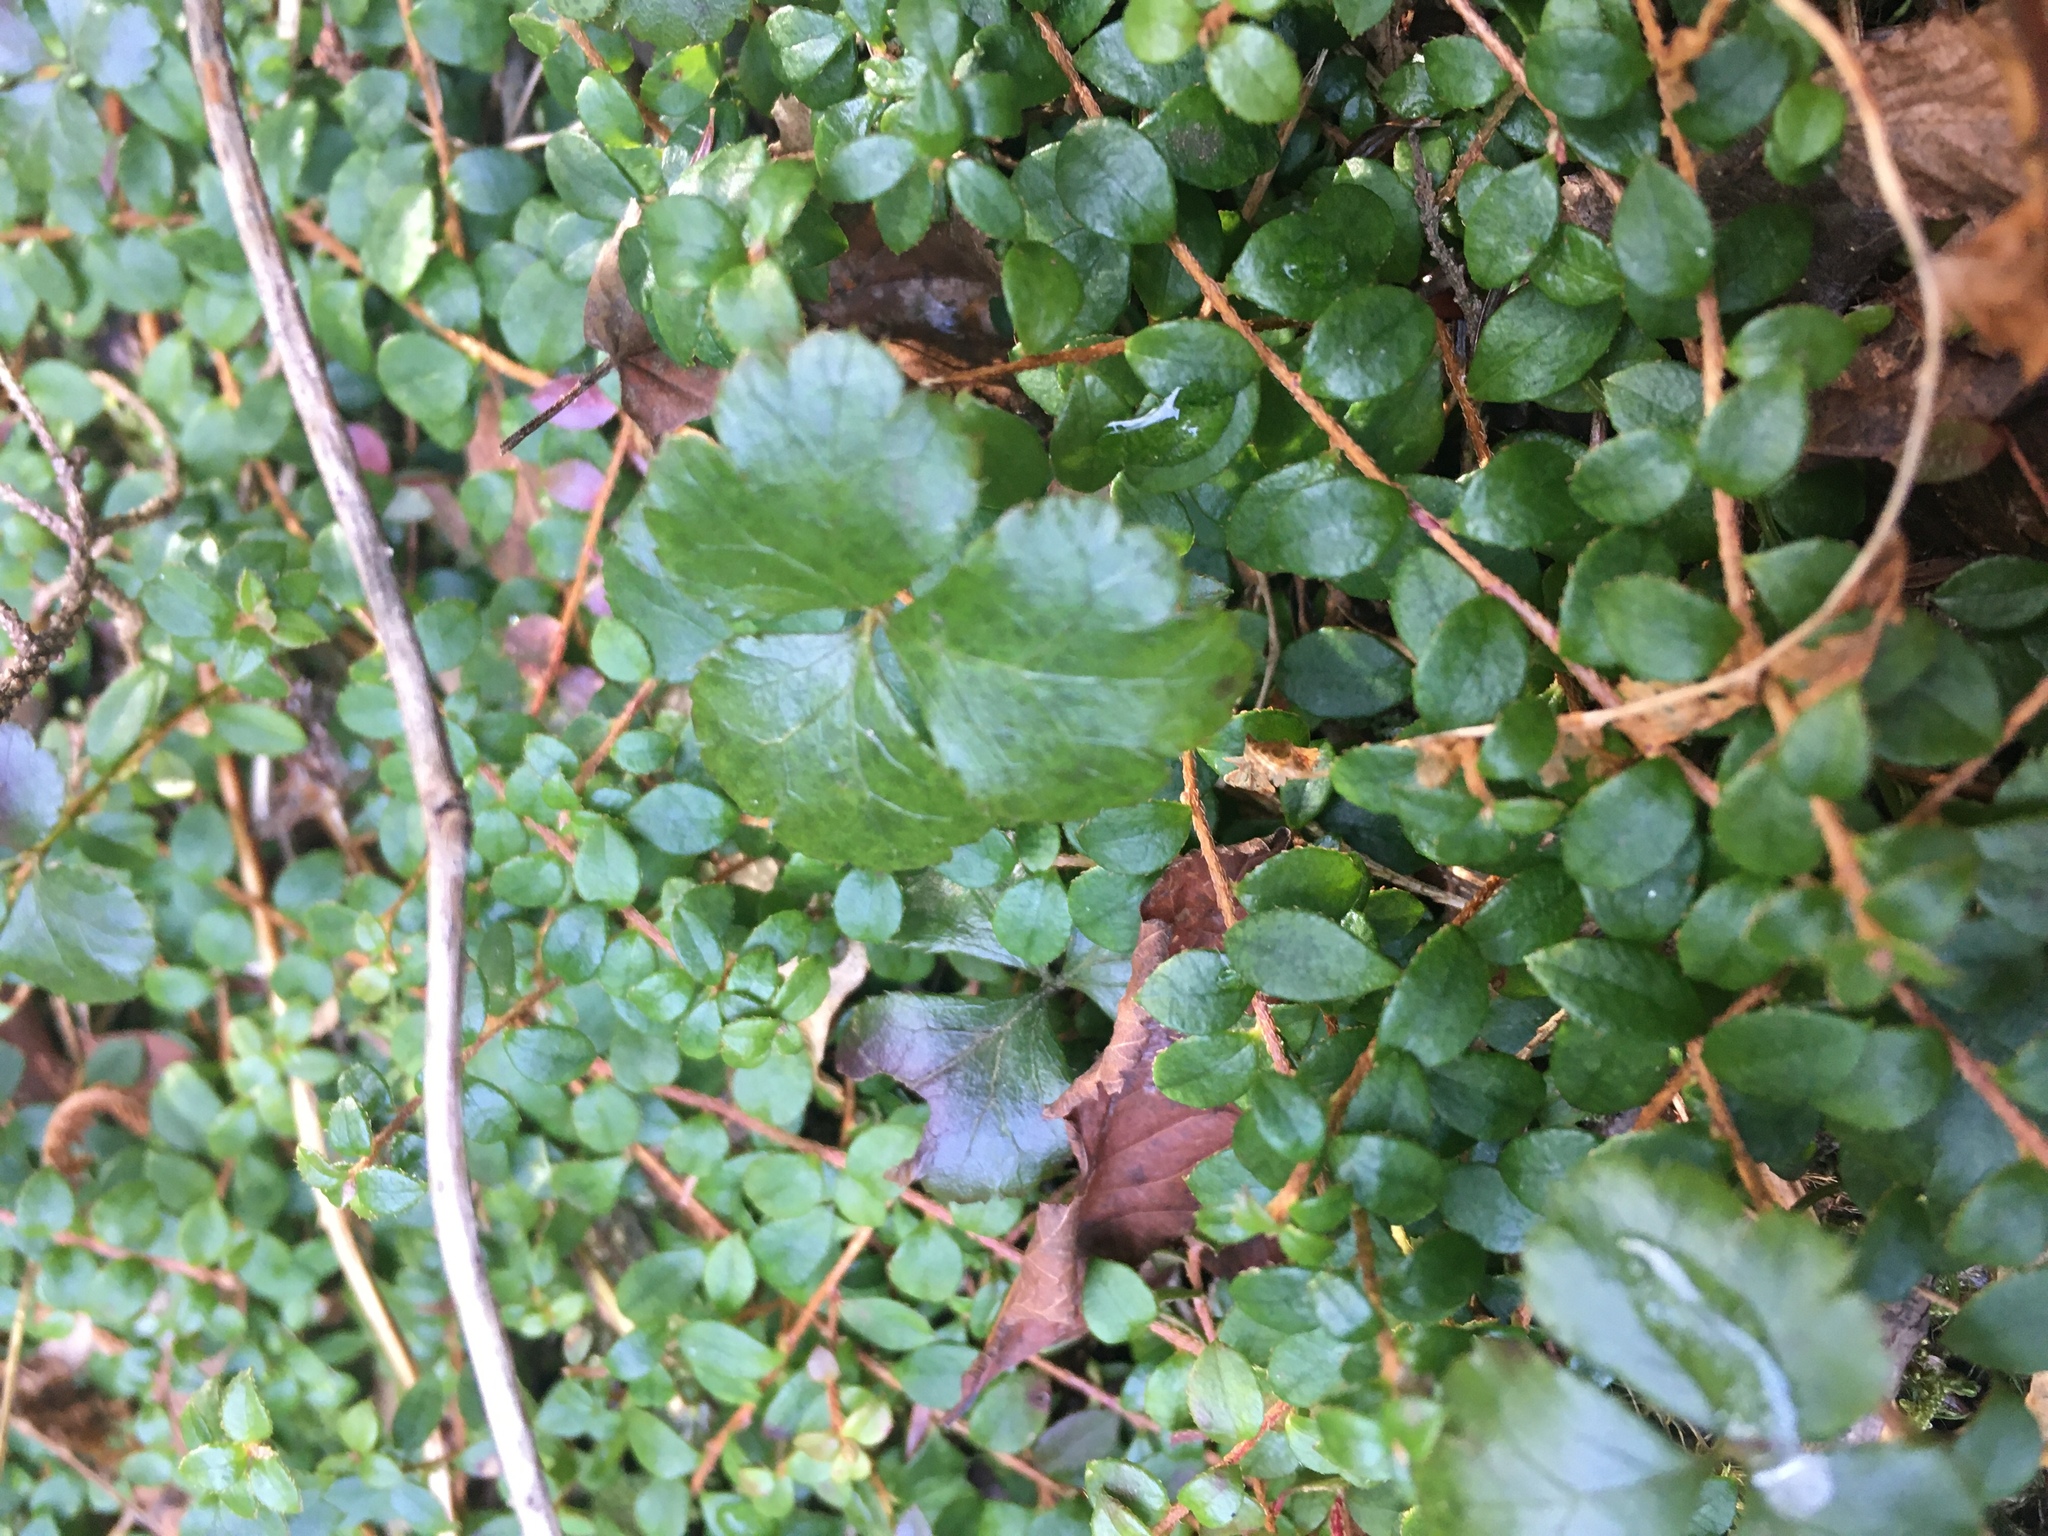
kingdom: Plantae
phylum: Tracheophyta
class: Magnoliopsida
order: Ranunculales
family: Ranunculaceae
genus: Coptis
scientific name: Coptis trifolia
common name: Canker-root
